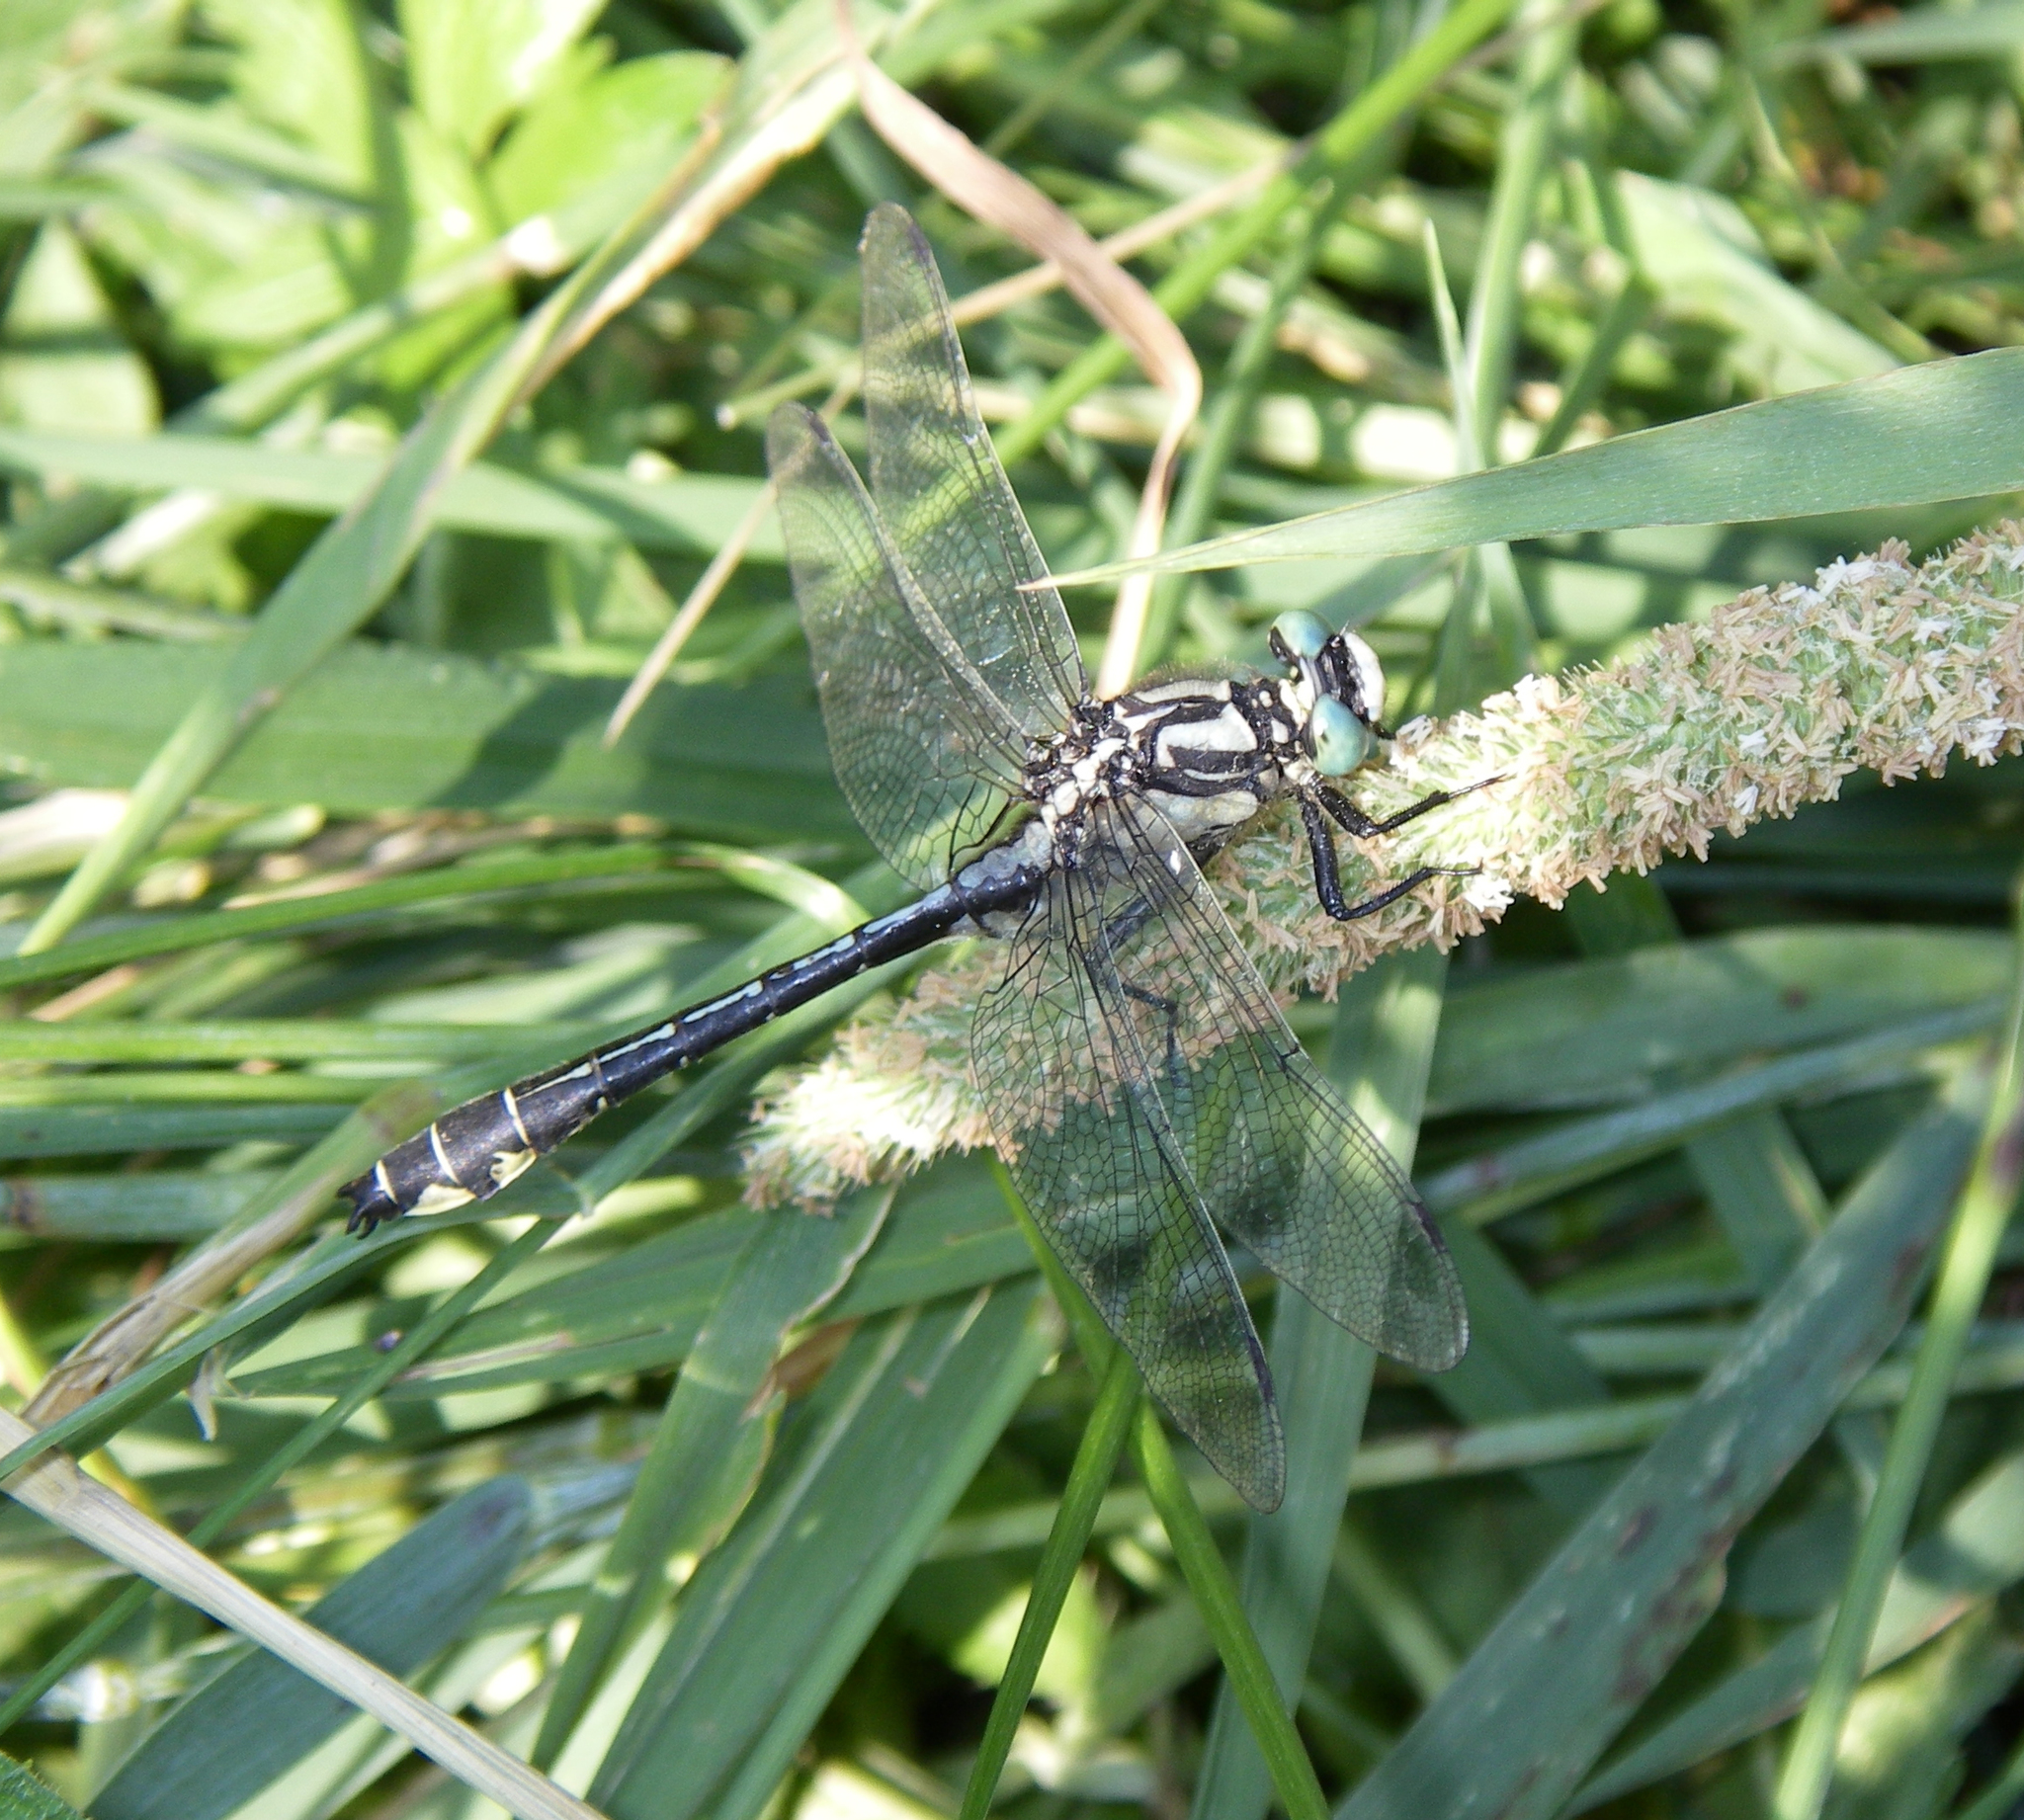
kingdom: Plantae
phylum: Tracheophyta
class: Liliopsida
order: Poales
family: Poaceae
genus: Phleum
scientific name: Phleum pratense
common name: Timothy grass
